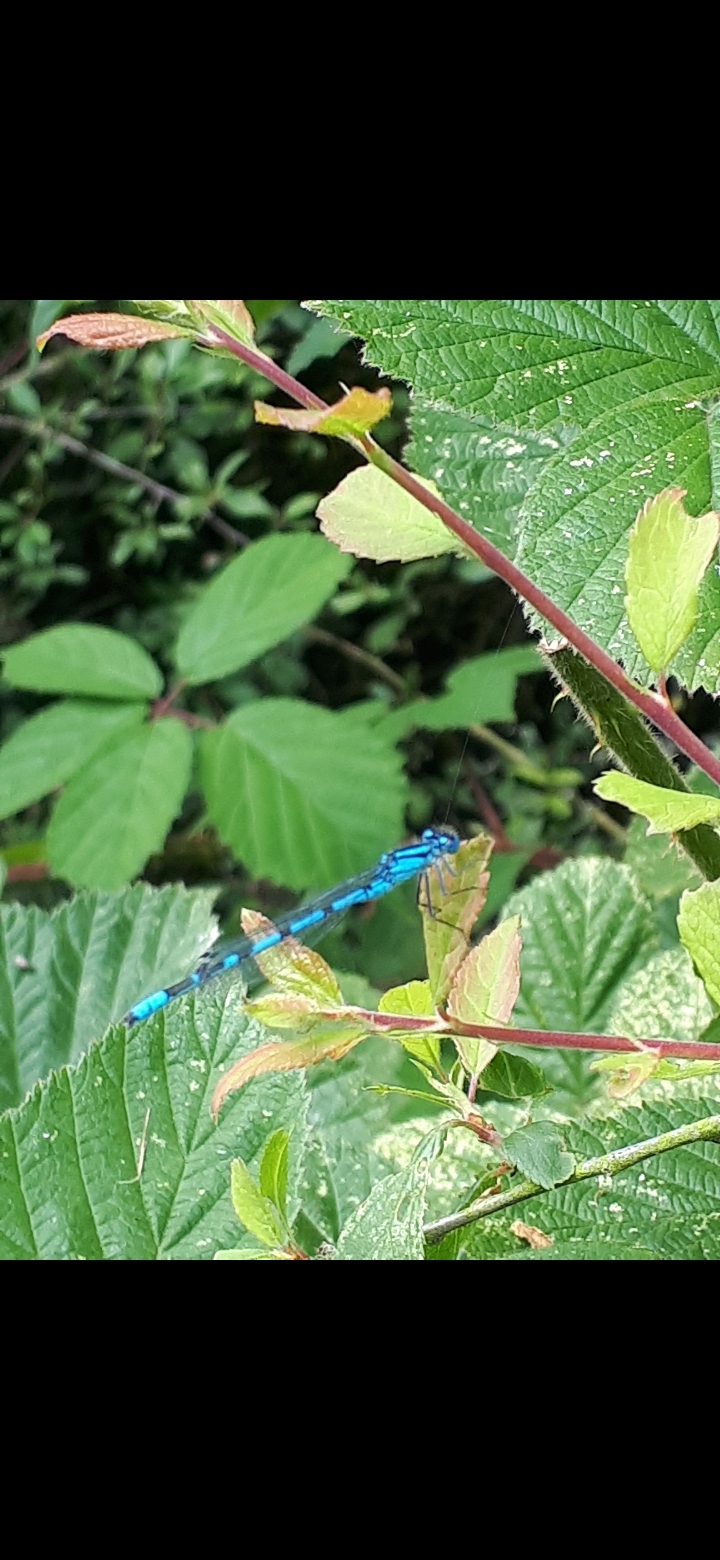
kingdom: Animalia
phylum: Arthropoda
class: Insecta
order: Odonata
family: Coenagrionidae
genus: Enallagma
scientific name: Enallagma cyathigerum
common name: Common blue damselfly
